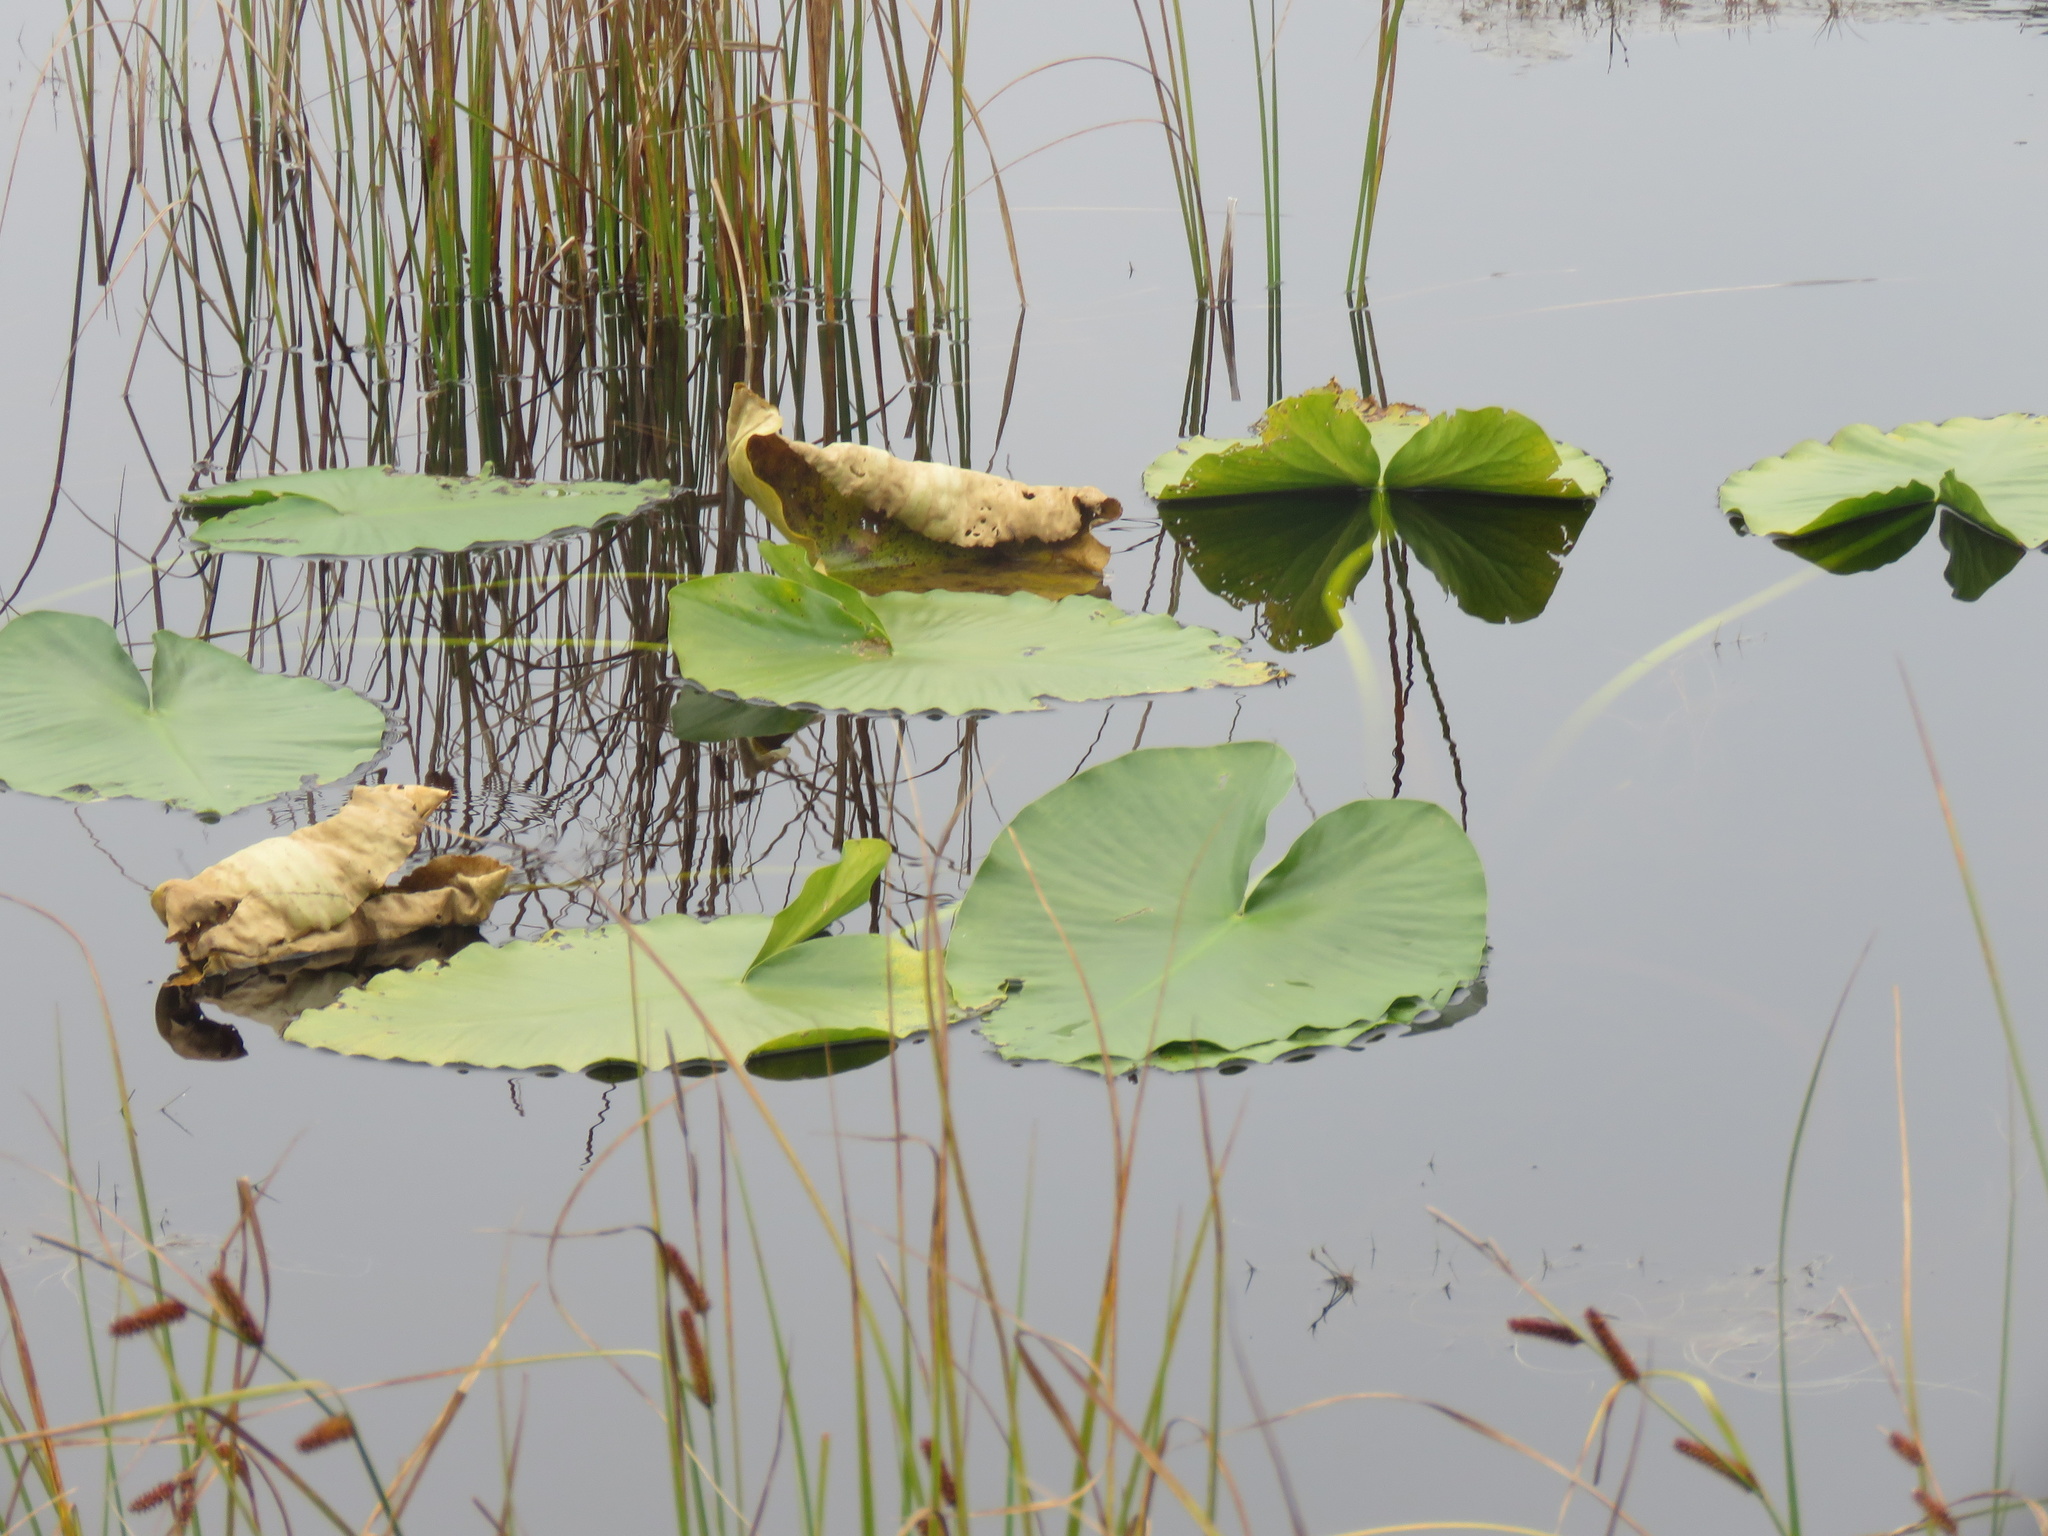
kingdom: Plantae
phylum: Tracheophyta
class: Magnoliopsida
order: Nymphaeales
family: Nymphaeaceae
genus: Nuphar
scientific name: Nuphar polysepala
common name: Rocky mountain cow-lily
